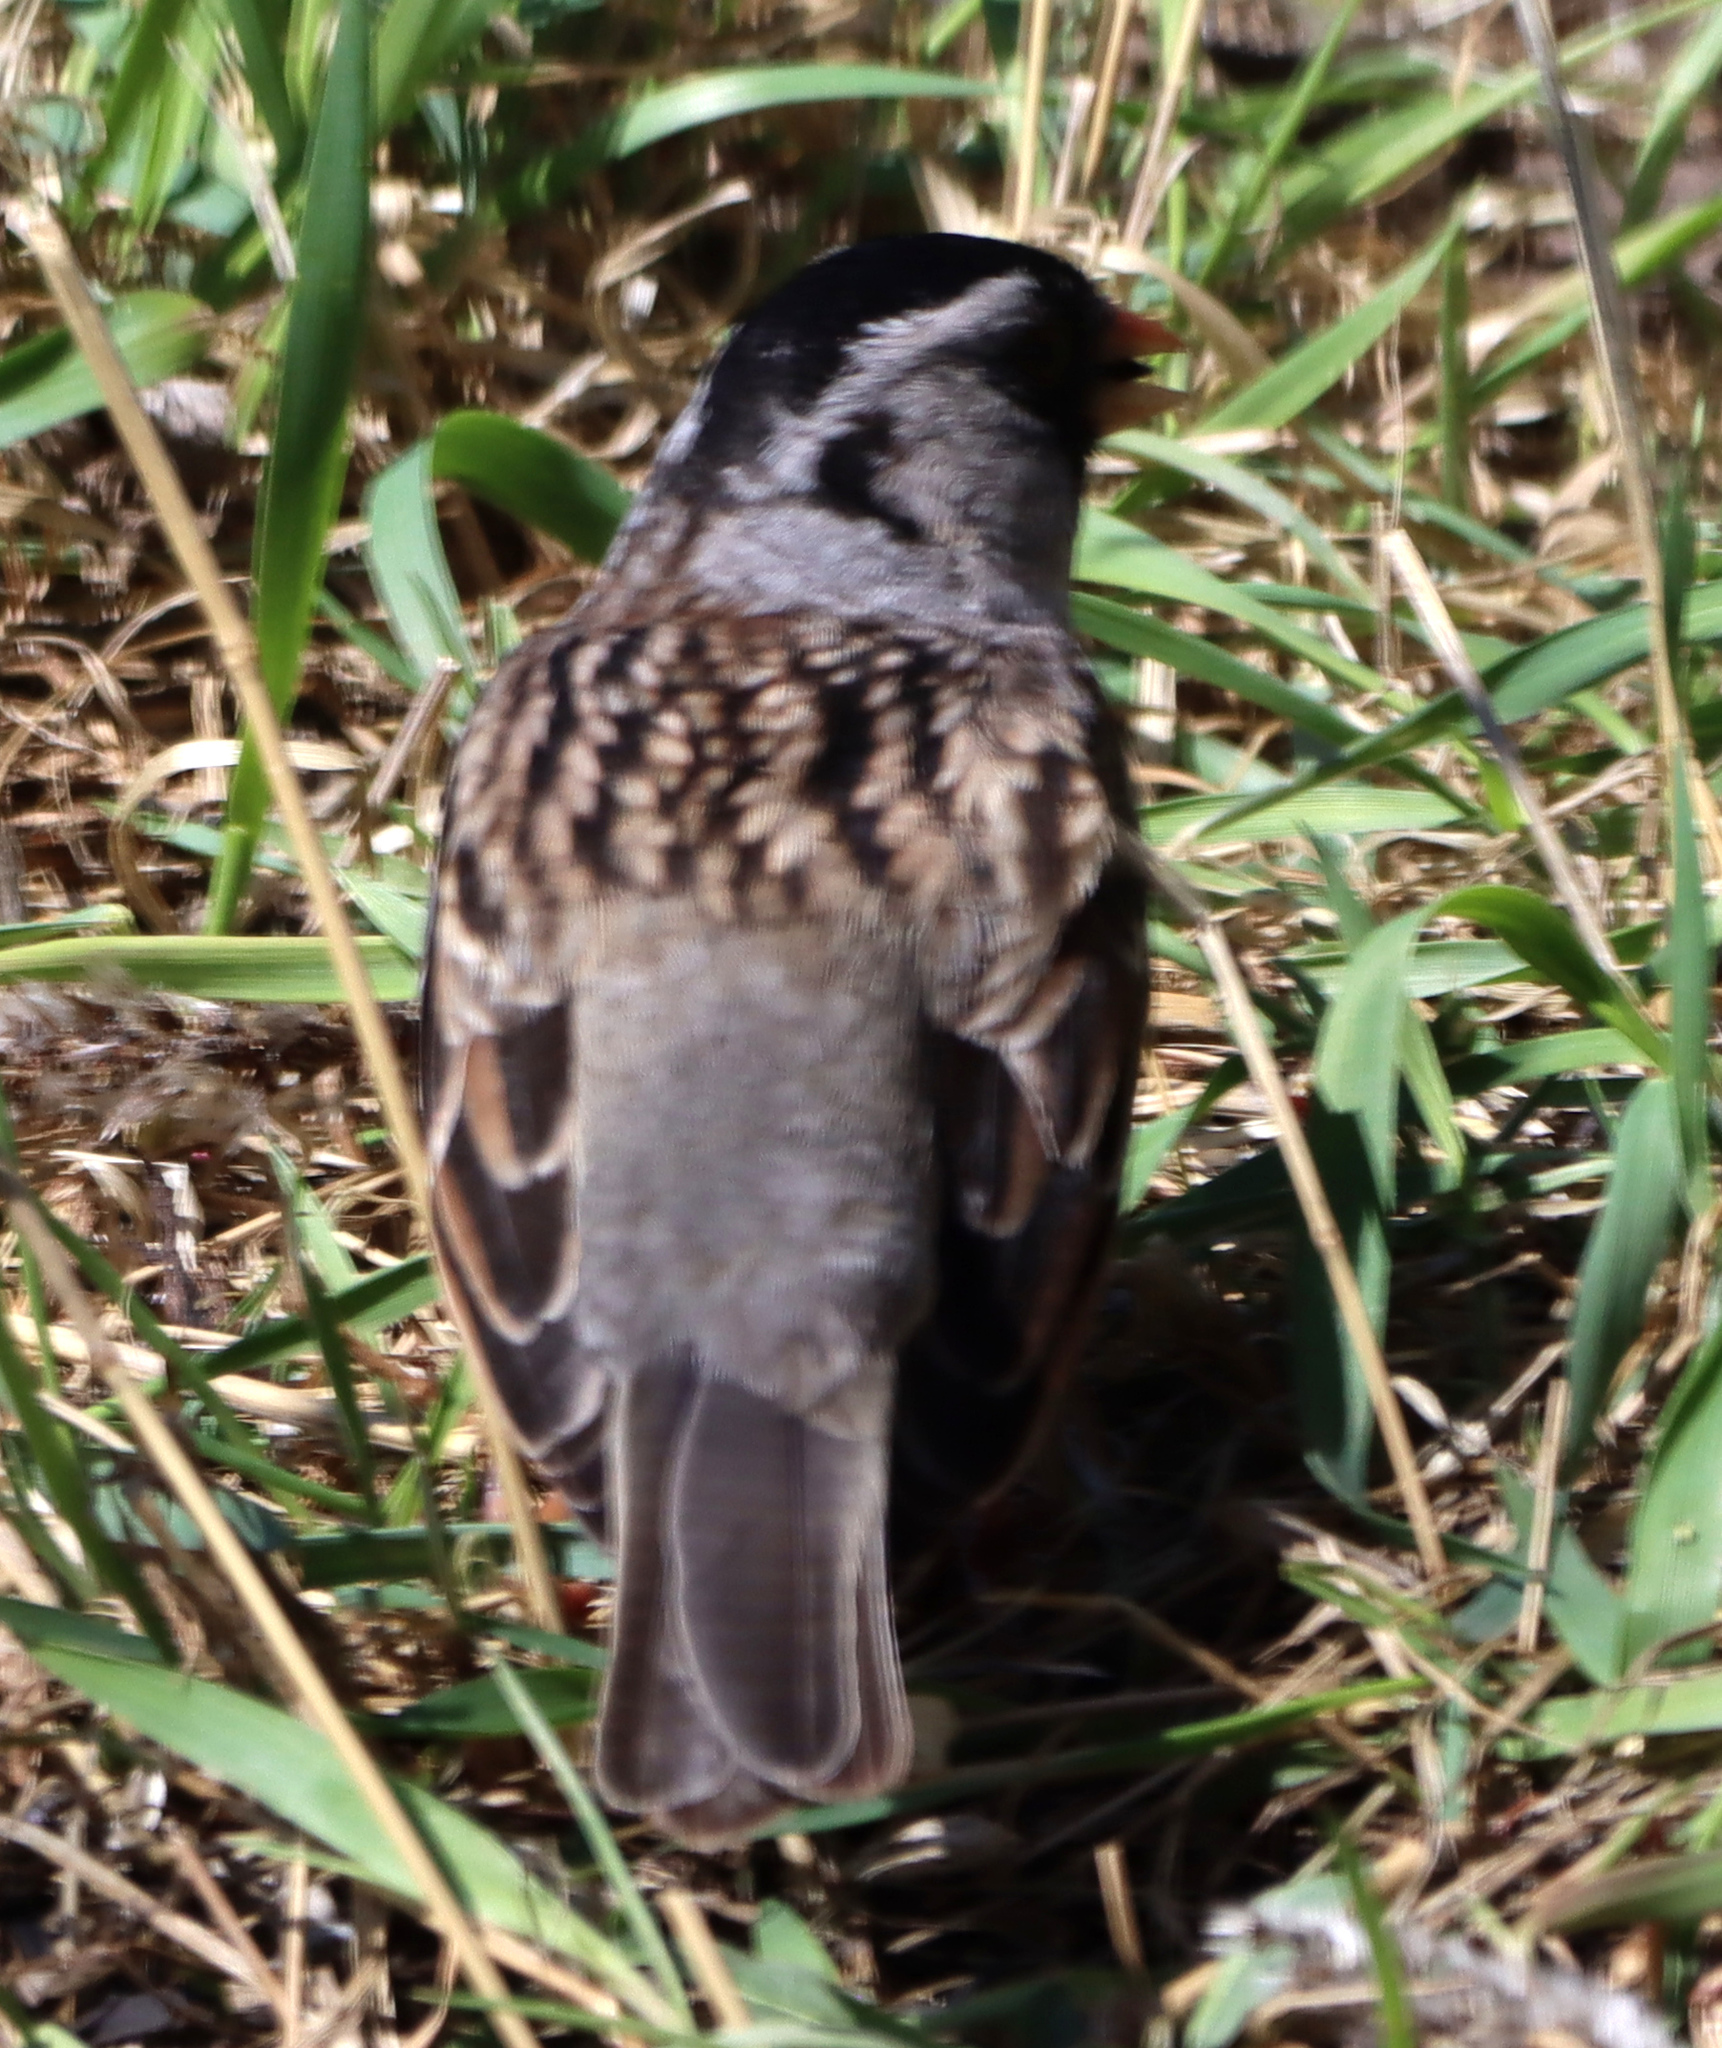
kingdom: Animalia
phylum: Chordata
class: Aves
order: Passeriformes
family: Passerellidae
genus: Zonotrichia
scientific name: Zonotrichia querula
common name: Harris's sparrow
